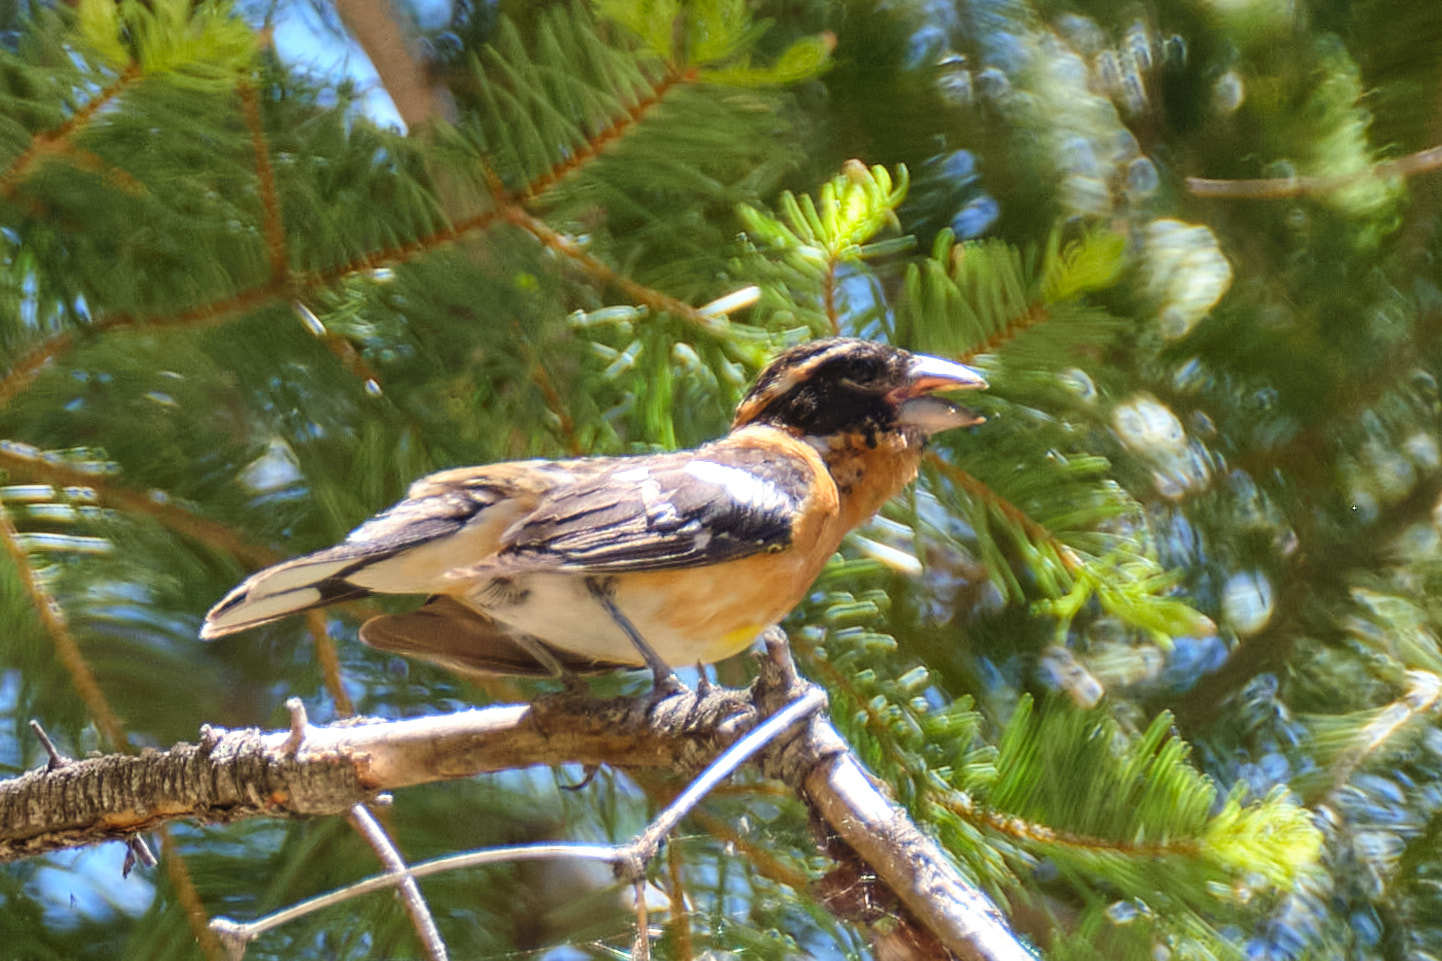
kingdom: Animalia
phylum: Chordata
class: Aves
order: Passeriformes
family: Cardinalidae
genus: Pheucticus
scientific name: Pheucticus melanocephalus
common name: Black-headed grosbeak
